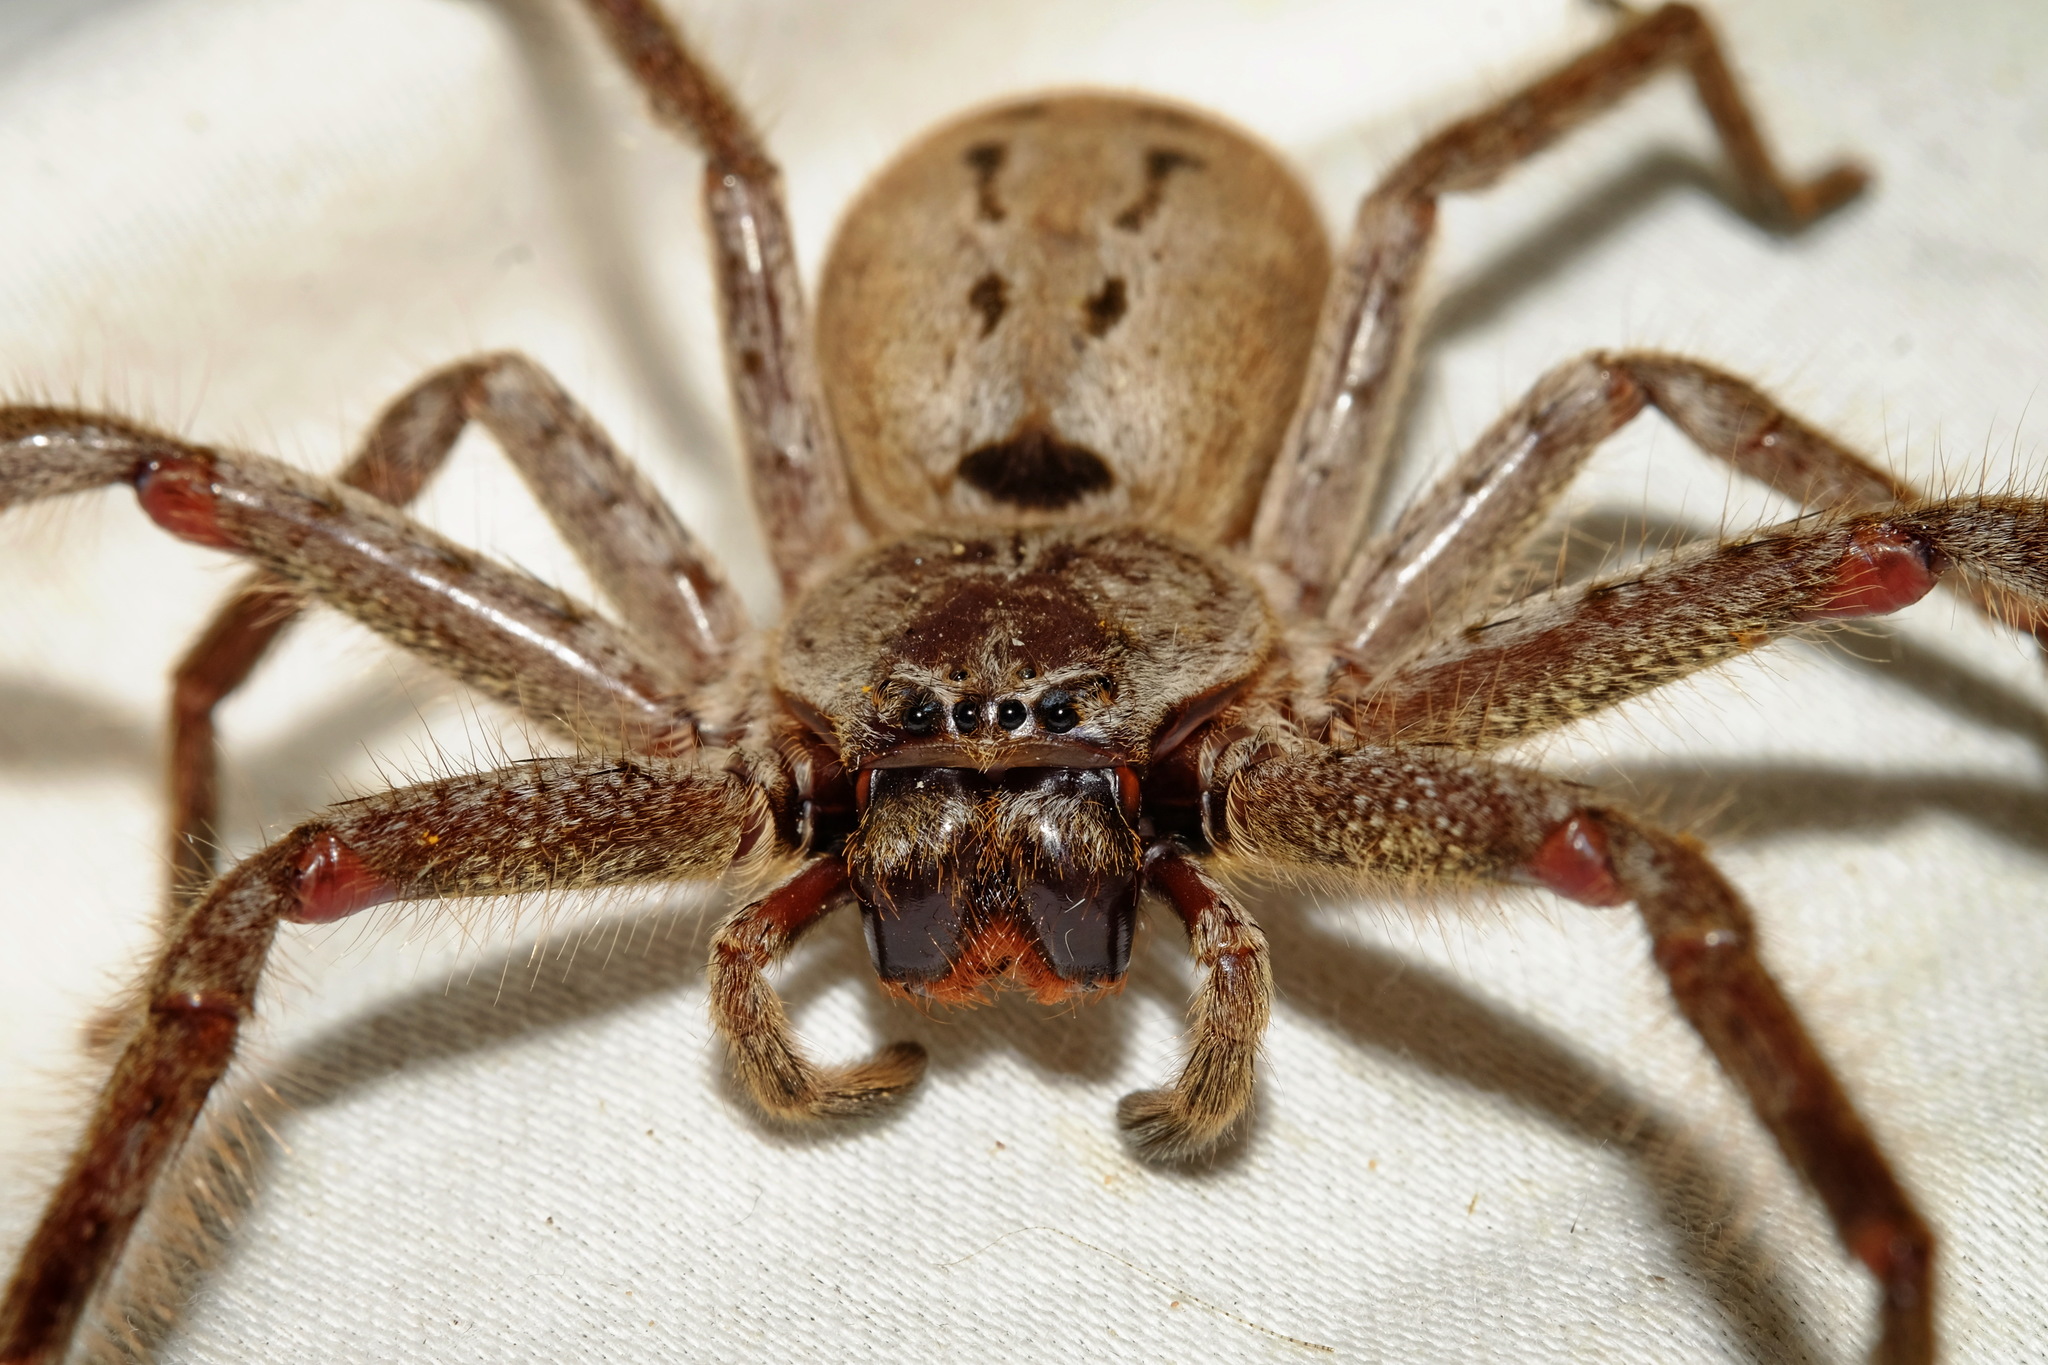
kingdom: Animalia
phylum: Arthropoda
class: Arachnida
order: Araneae
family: Sparassidae
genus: Isopeda
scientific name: Isopeda montana
